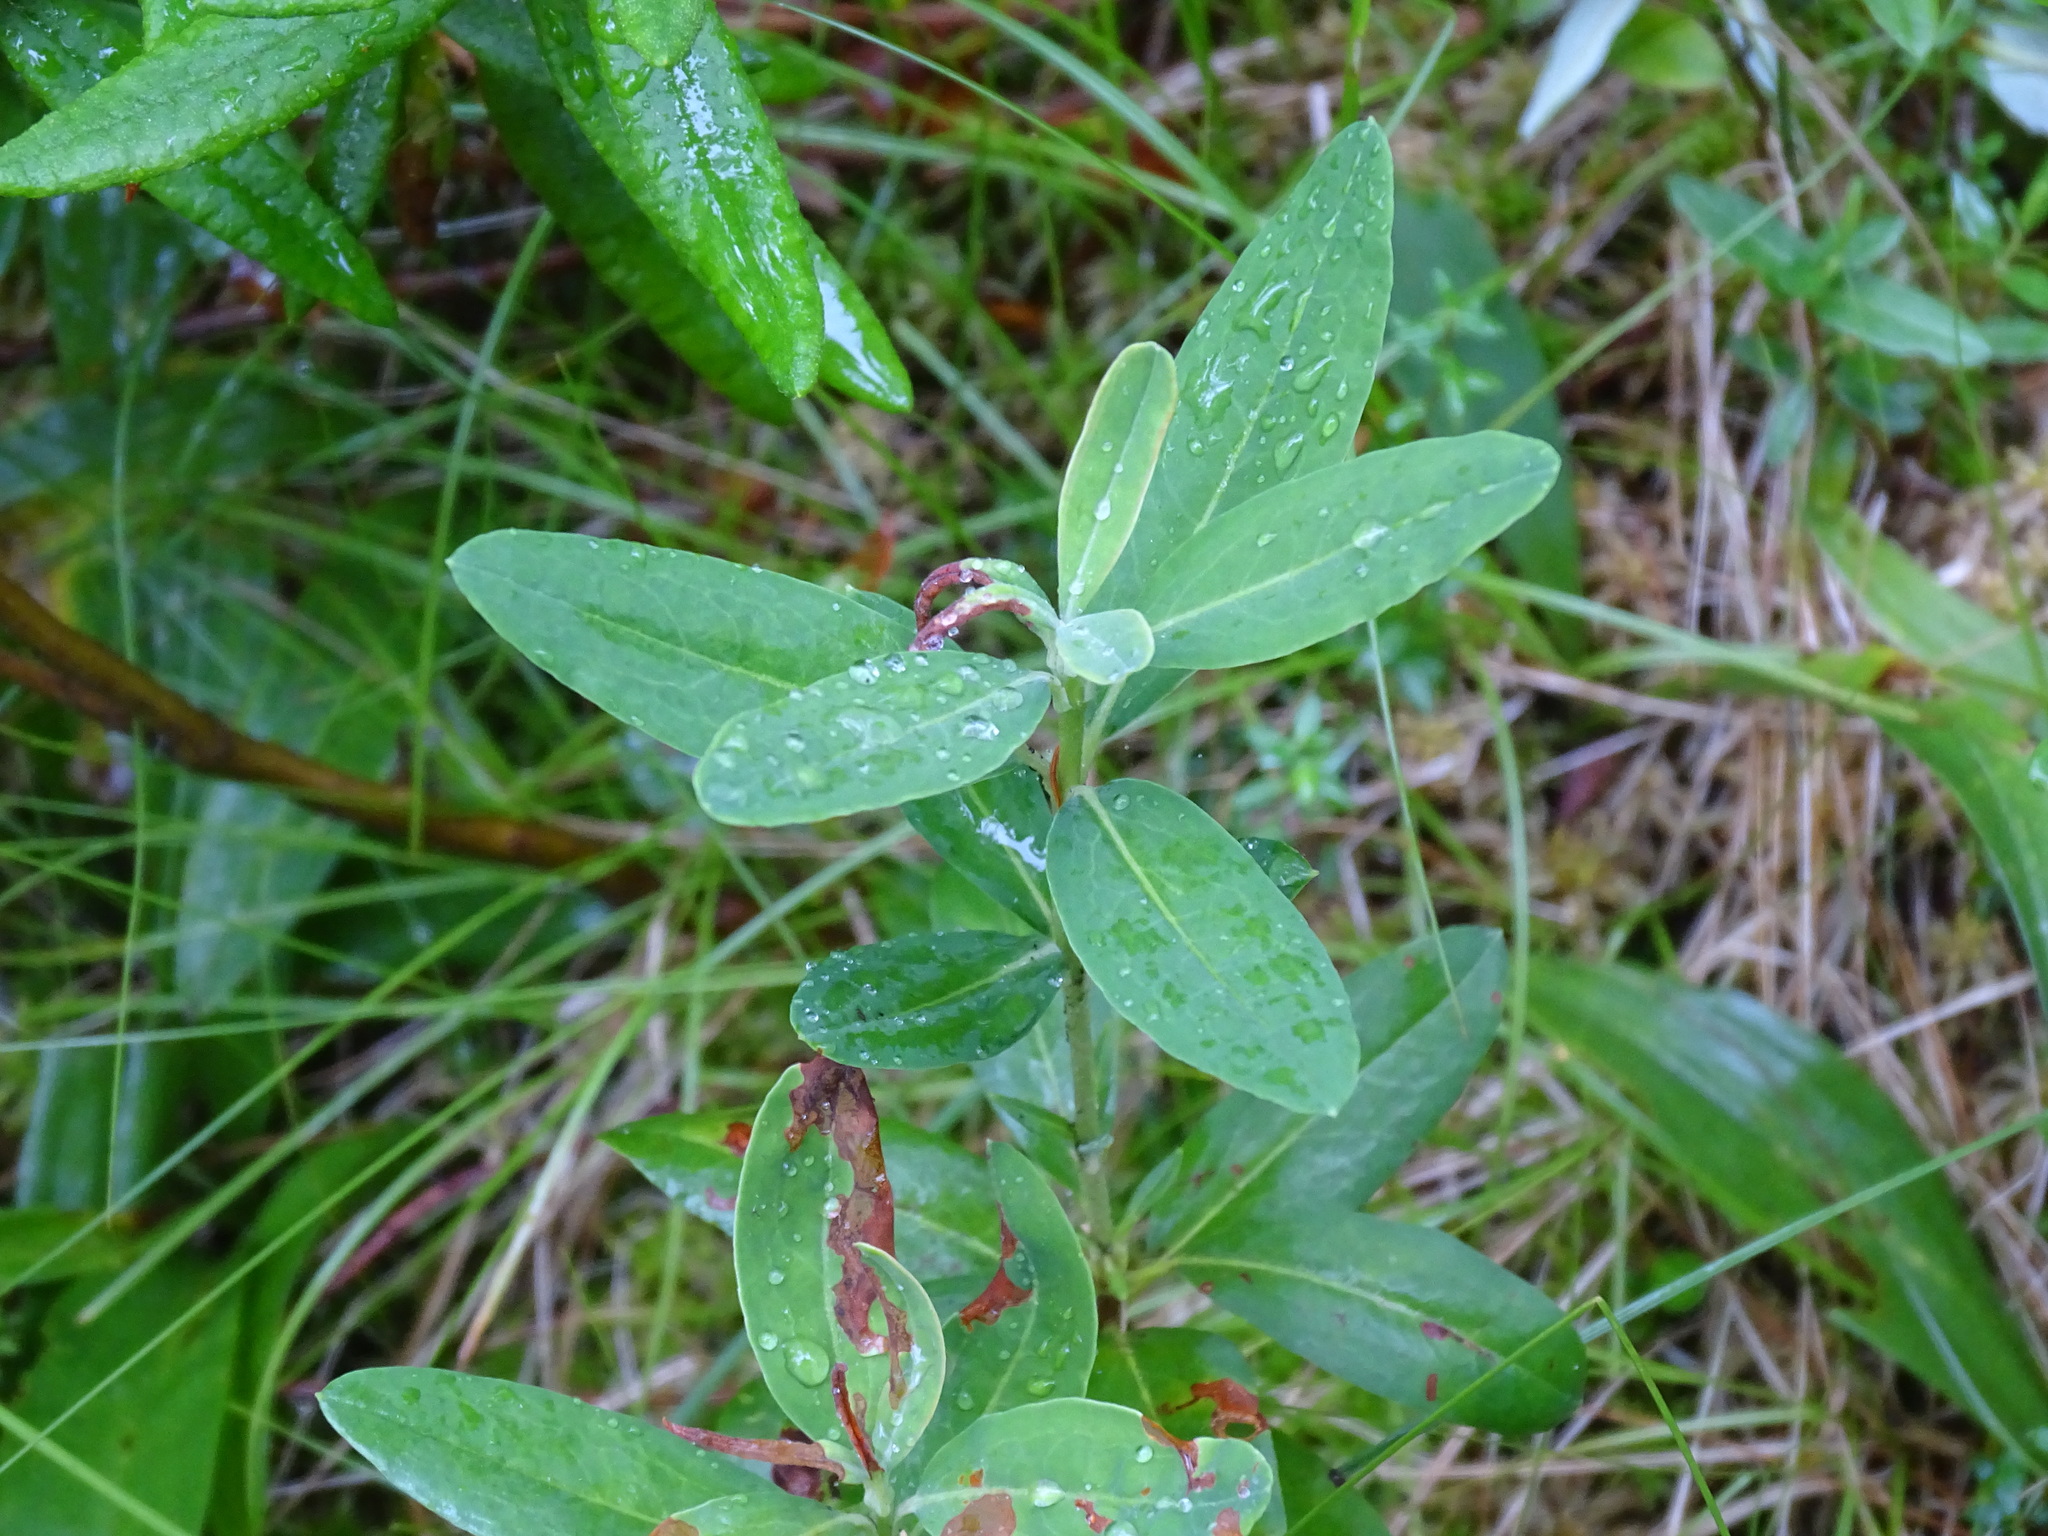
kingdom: Plantae
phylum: Tracheophyta
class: Magnoliopsida
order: Ericales
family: Ericaceae
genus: Kalmia
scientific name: Kalmia angustifolia
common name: Sheep-laurel
